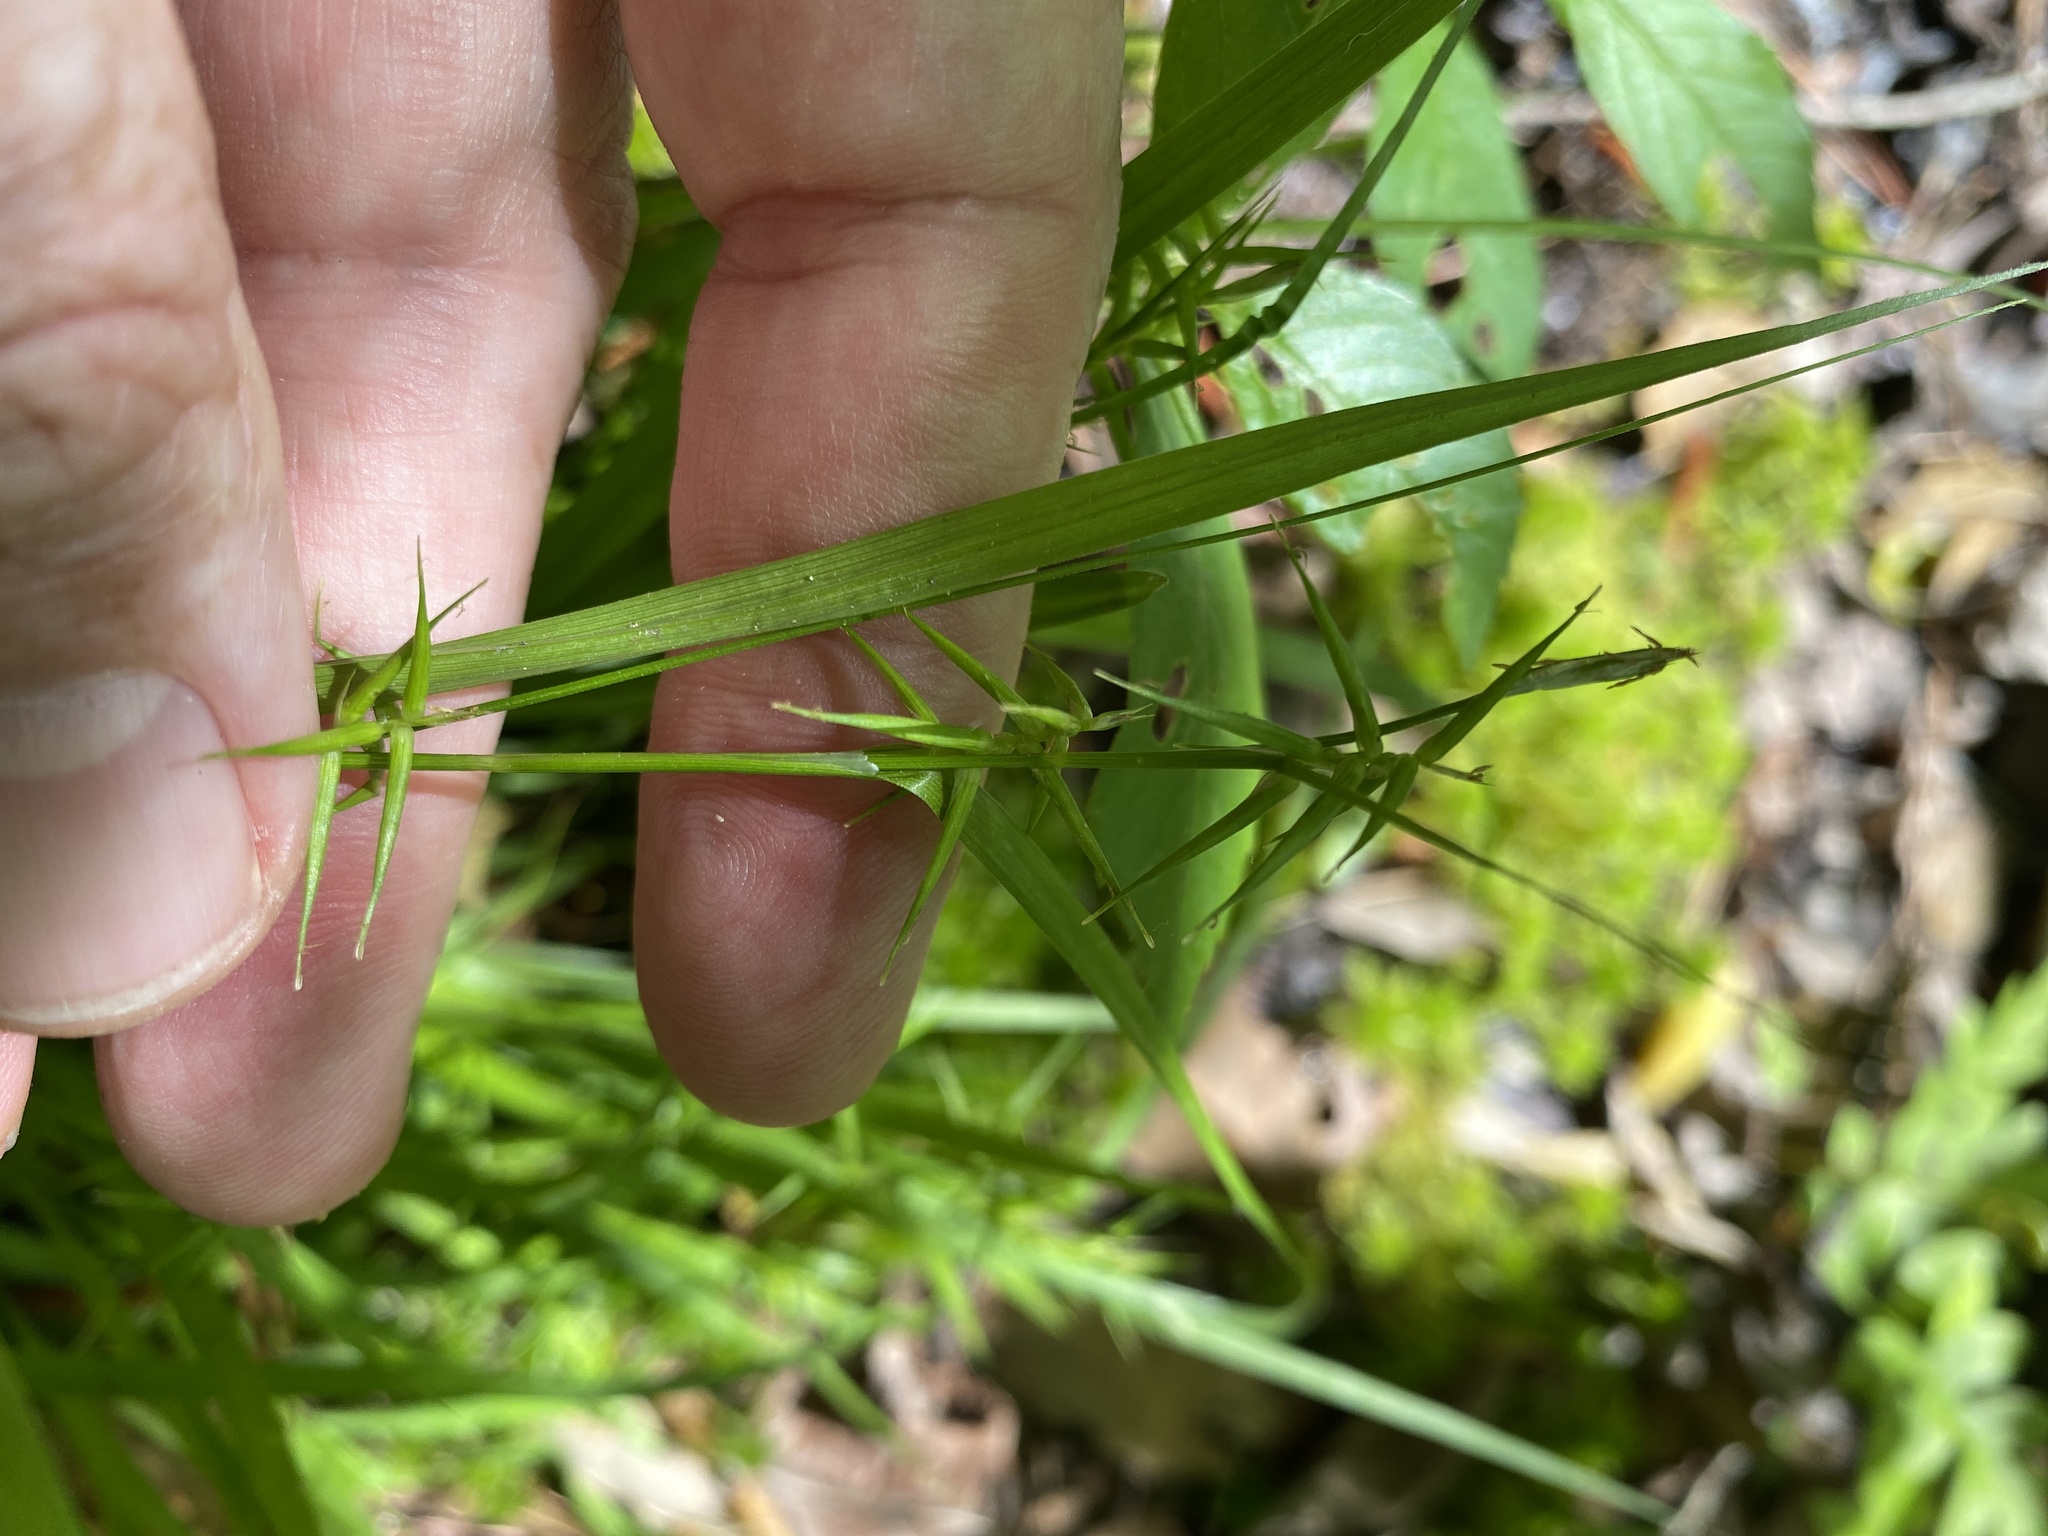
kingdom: Plantae
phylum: Tracheophyta
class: Liliopsida
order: Poales
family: Cyperaceae
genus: Carex
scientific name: Carex collinsii
